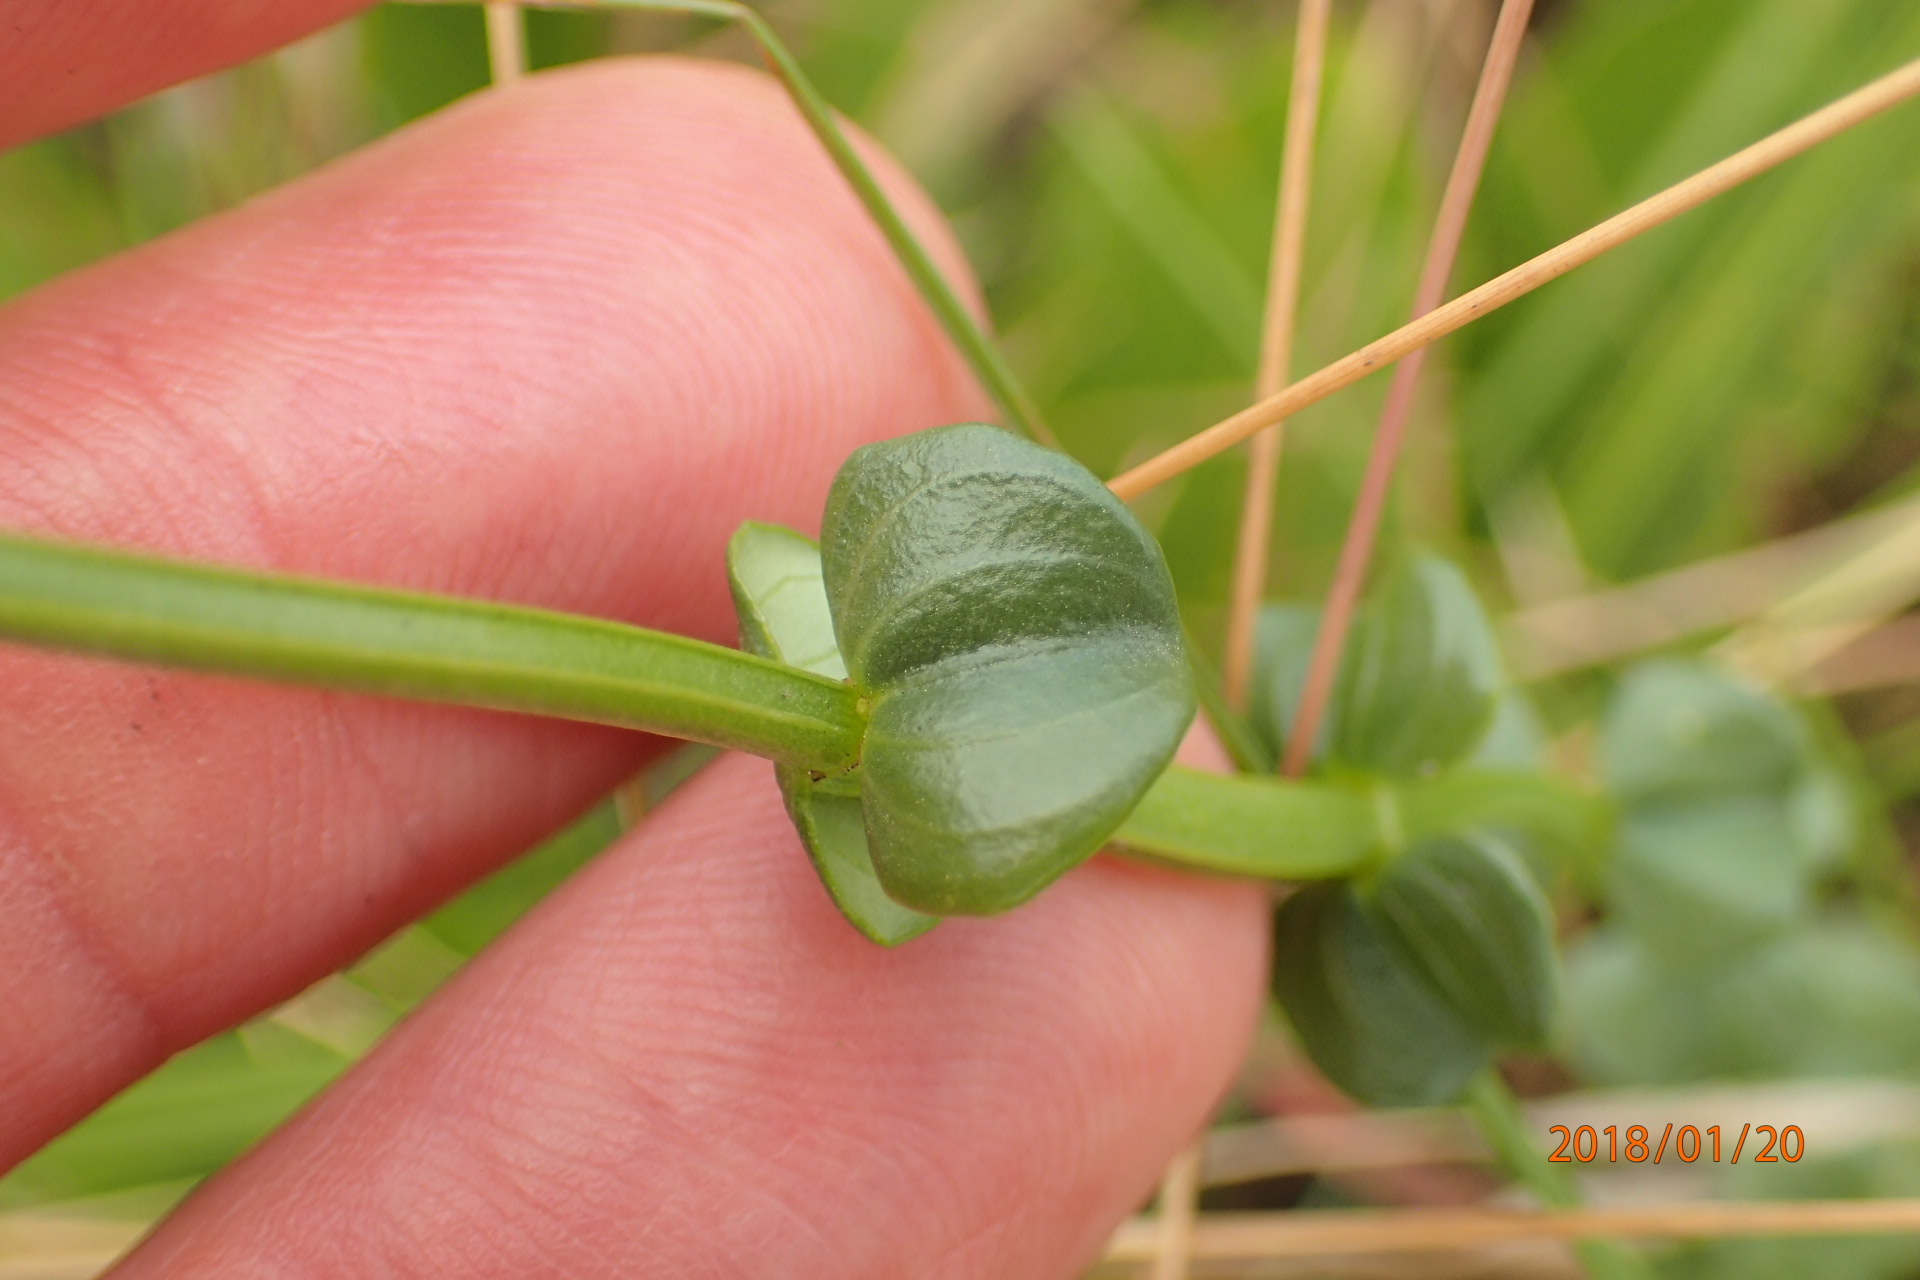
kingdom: Plantae
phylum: Tracheophyta
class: Magnoliopsida
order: Gentianales
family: Gentianaceae
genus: Sebaea
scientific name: Sebaea sedoides
